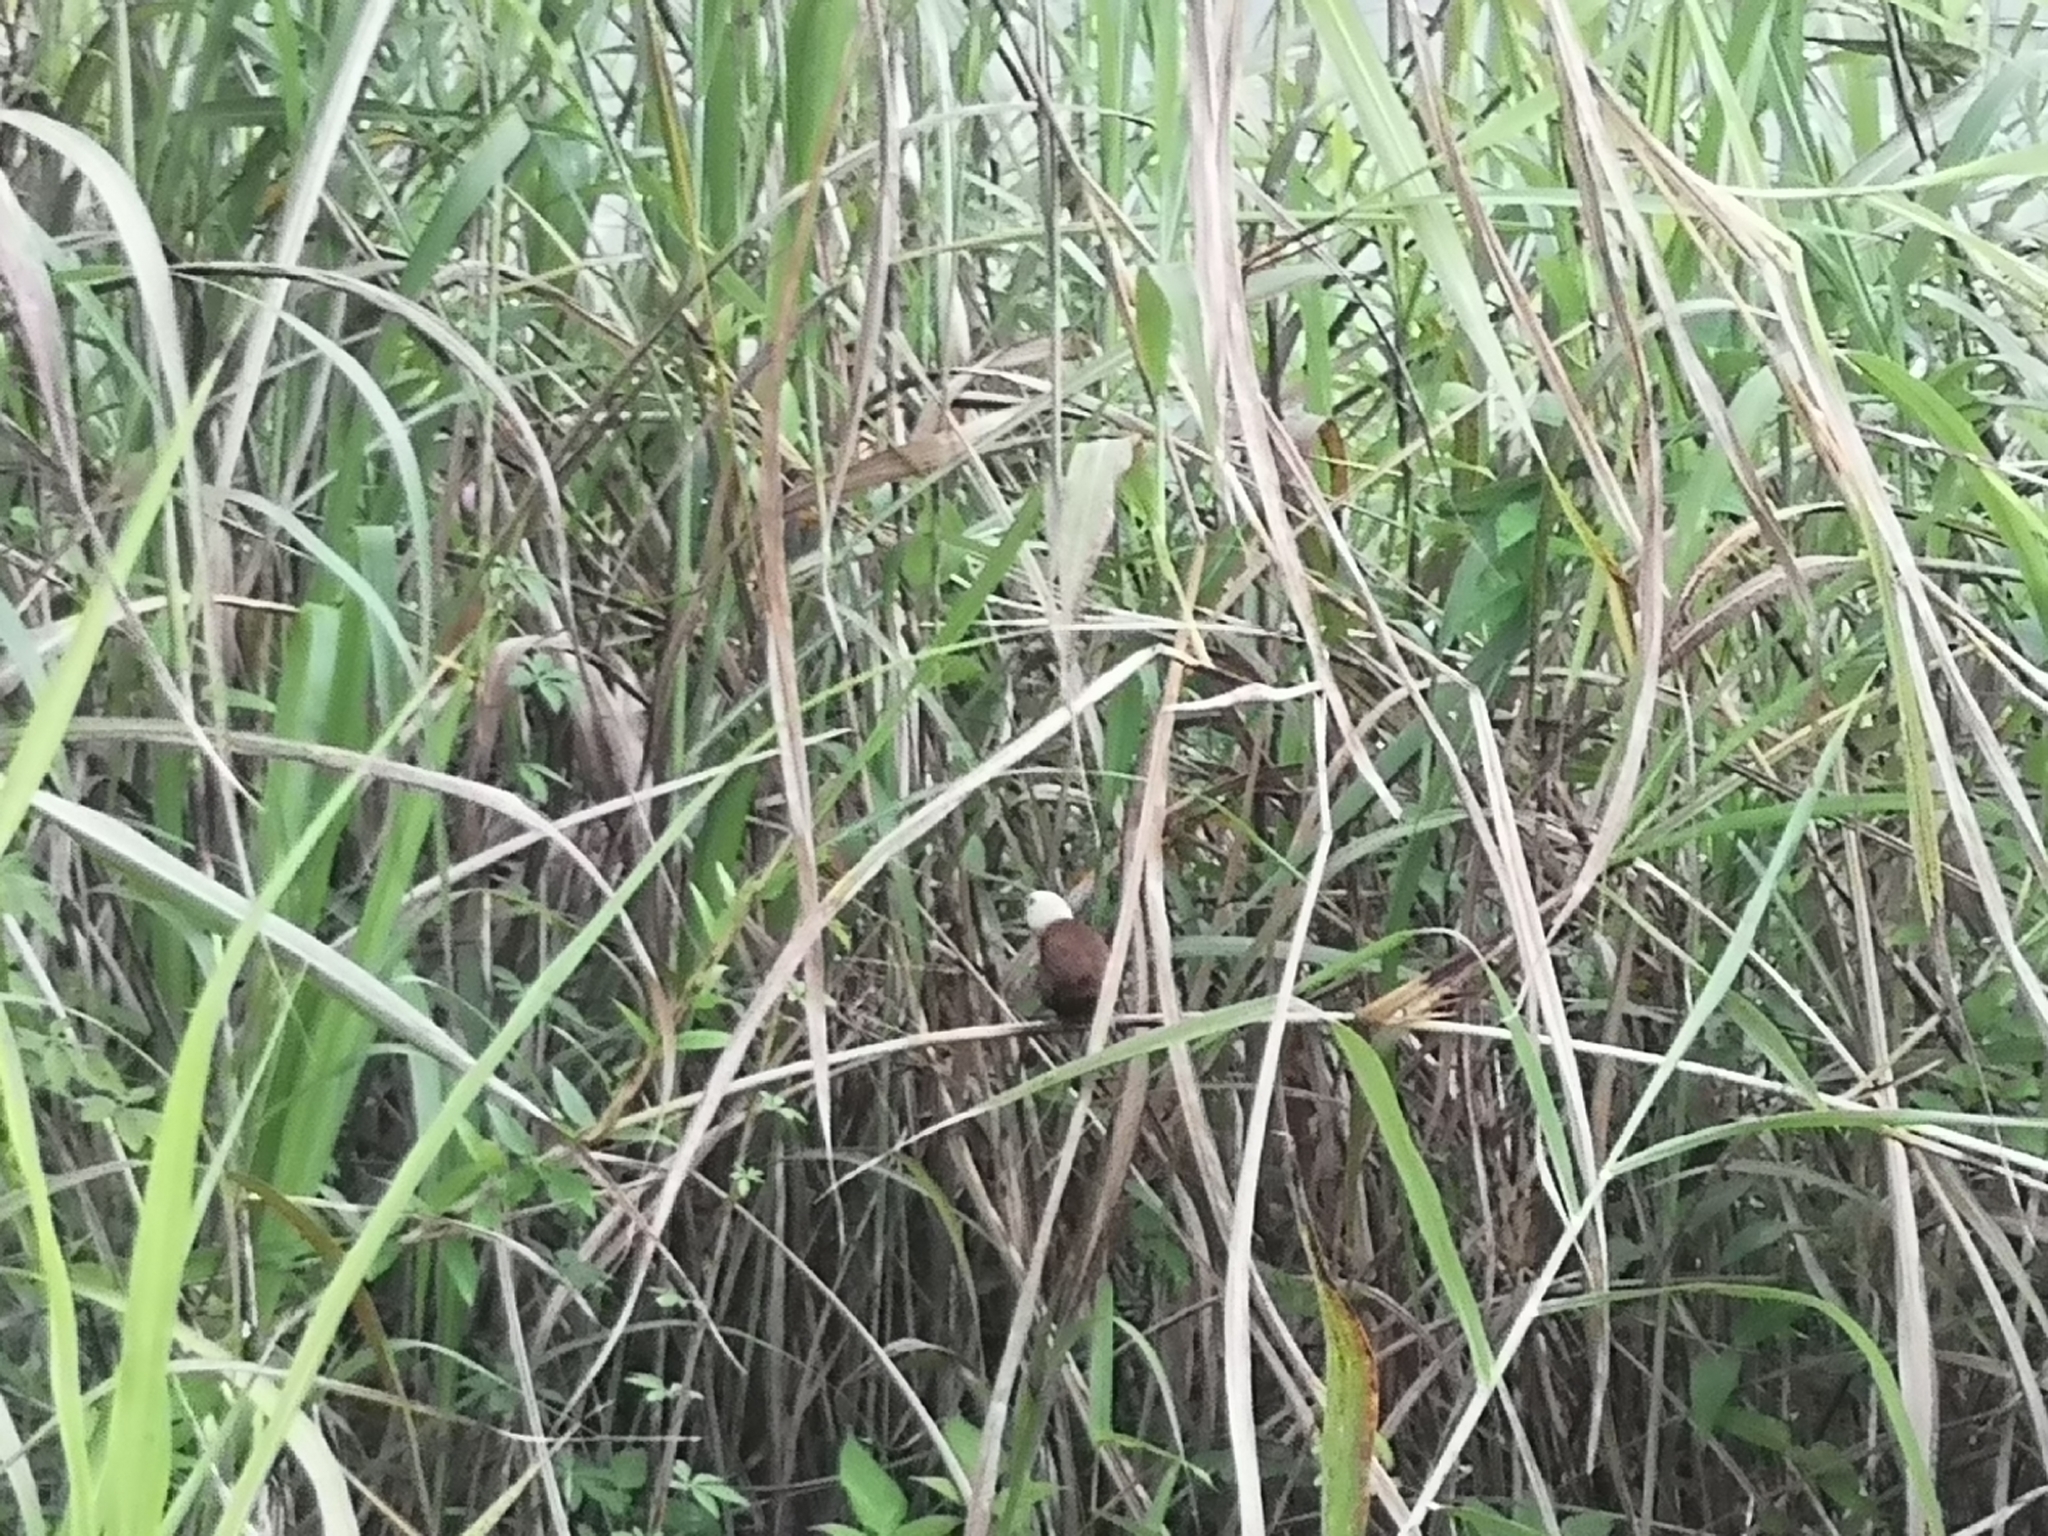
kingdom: Animalia
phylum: Chordata
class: Aves
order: Passeriformes
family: Estrildidae
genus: Lonchura
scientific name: Lonchura maja
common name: White-headed munia
